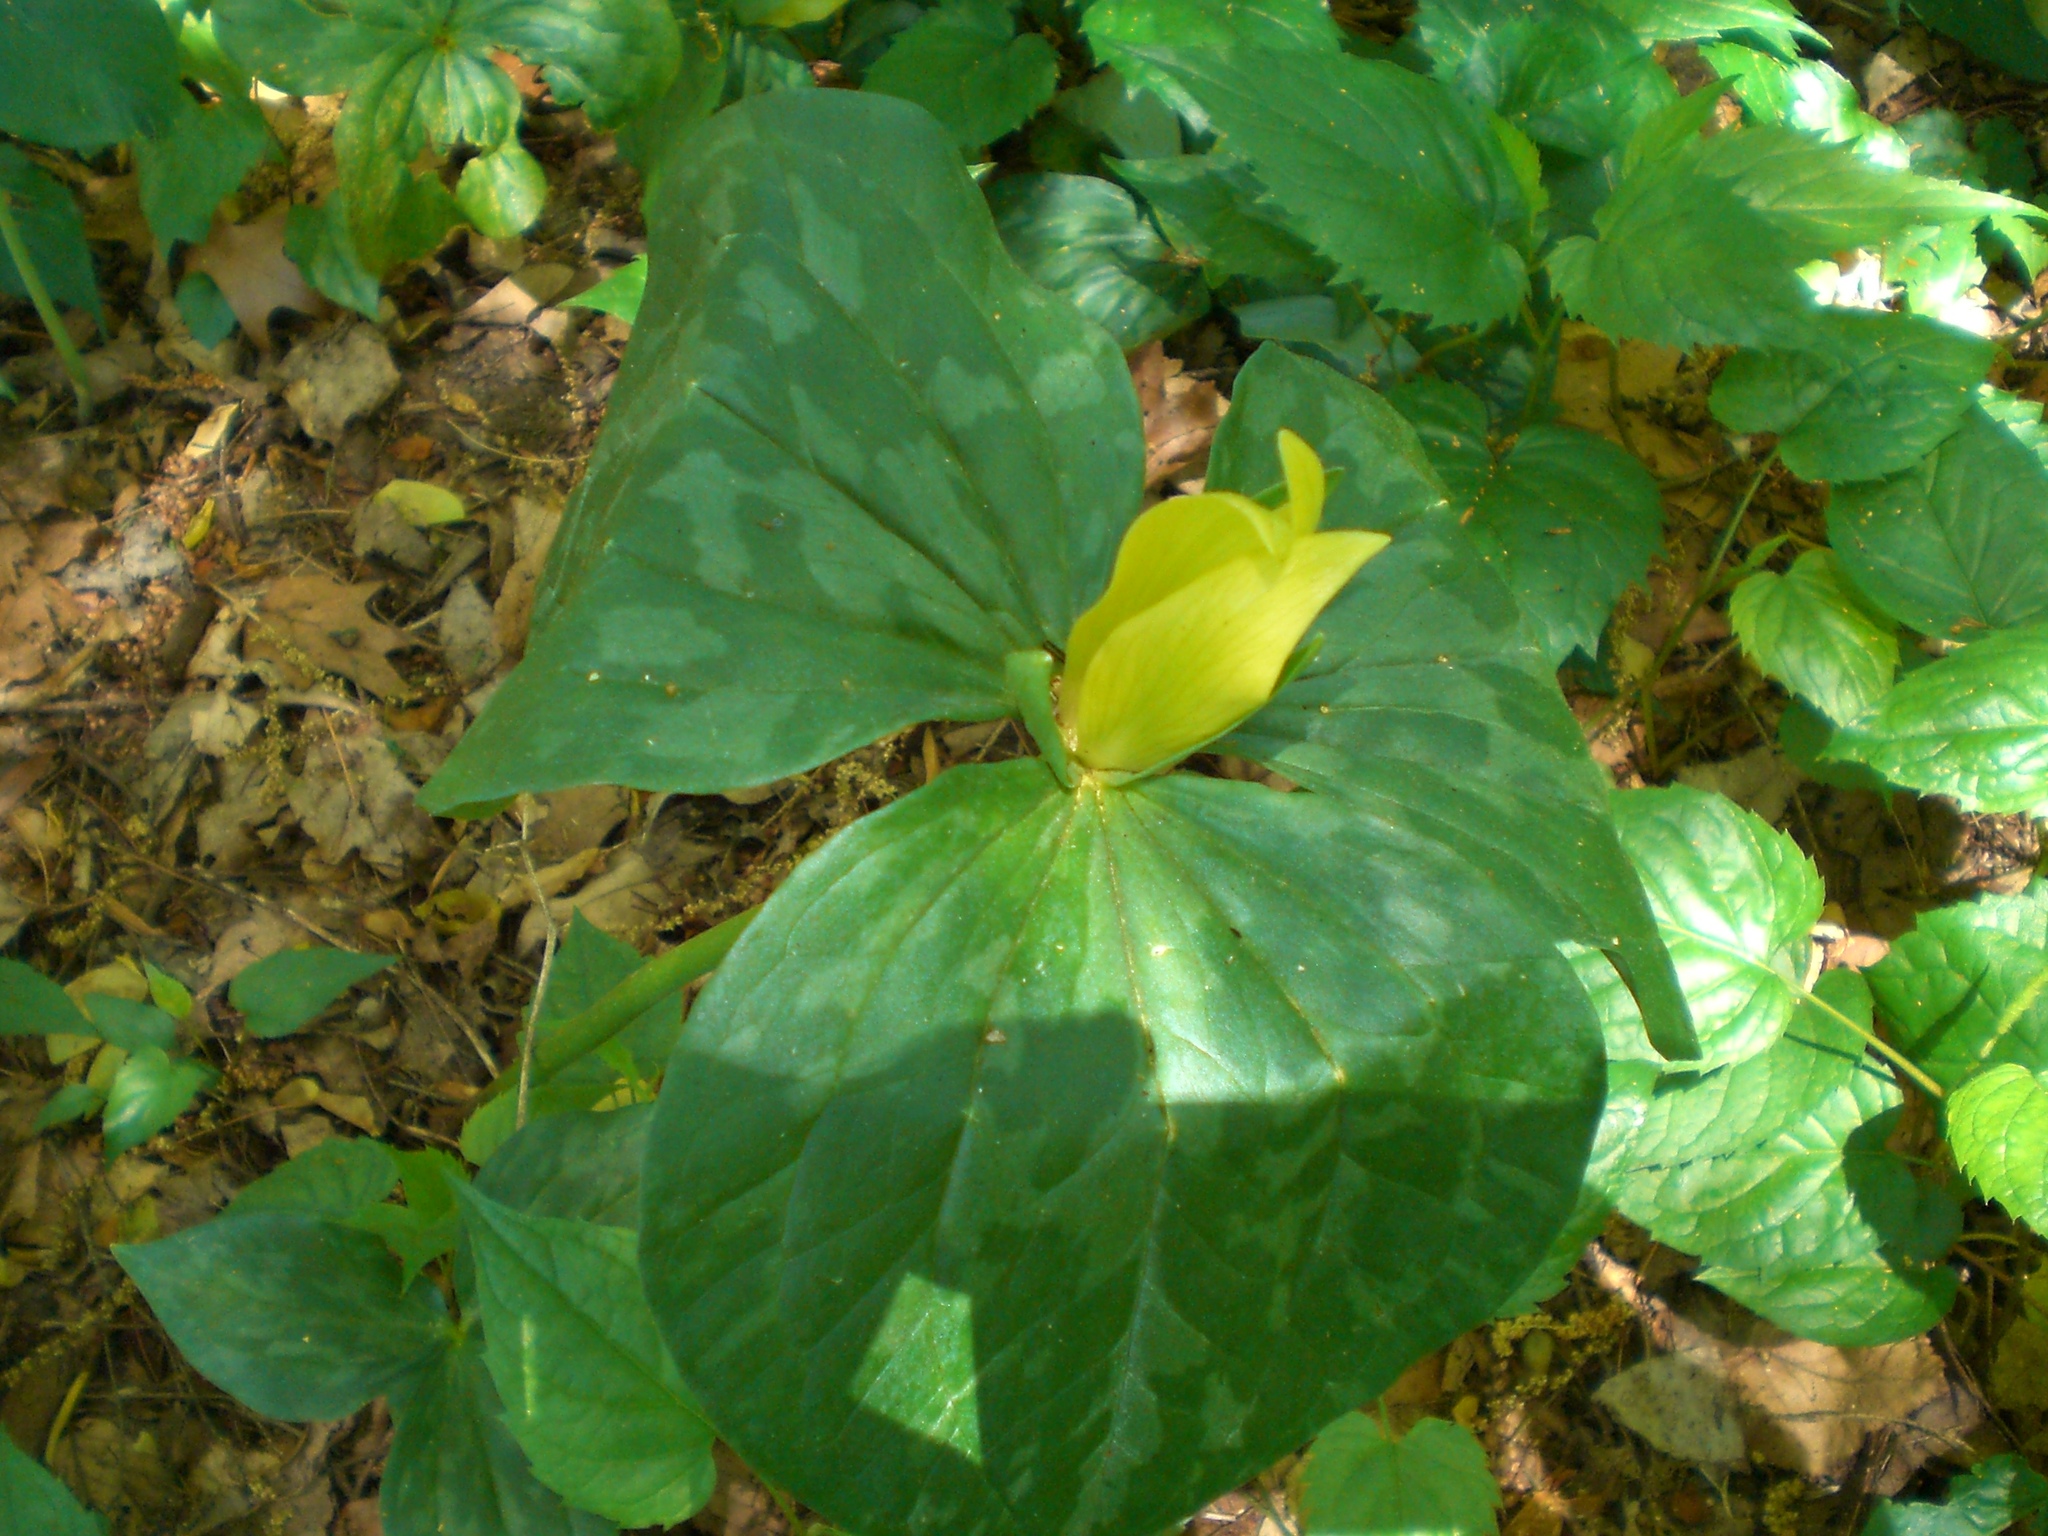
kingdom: Plantae
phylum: Tracheophyta
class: Liliopsida
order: Liliales
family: Melanthiaceae
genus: Trillium
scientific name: Trillium luteum
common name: Wax trillium
